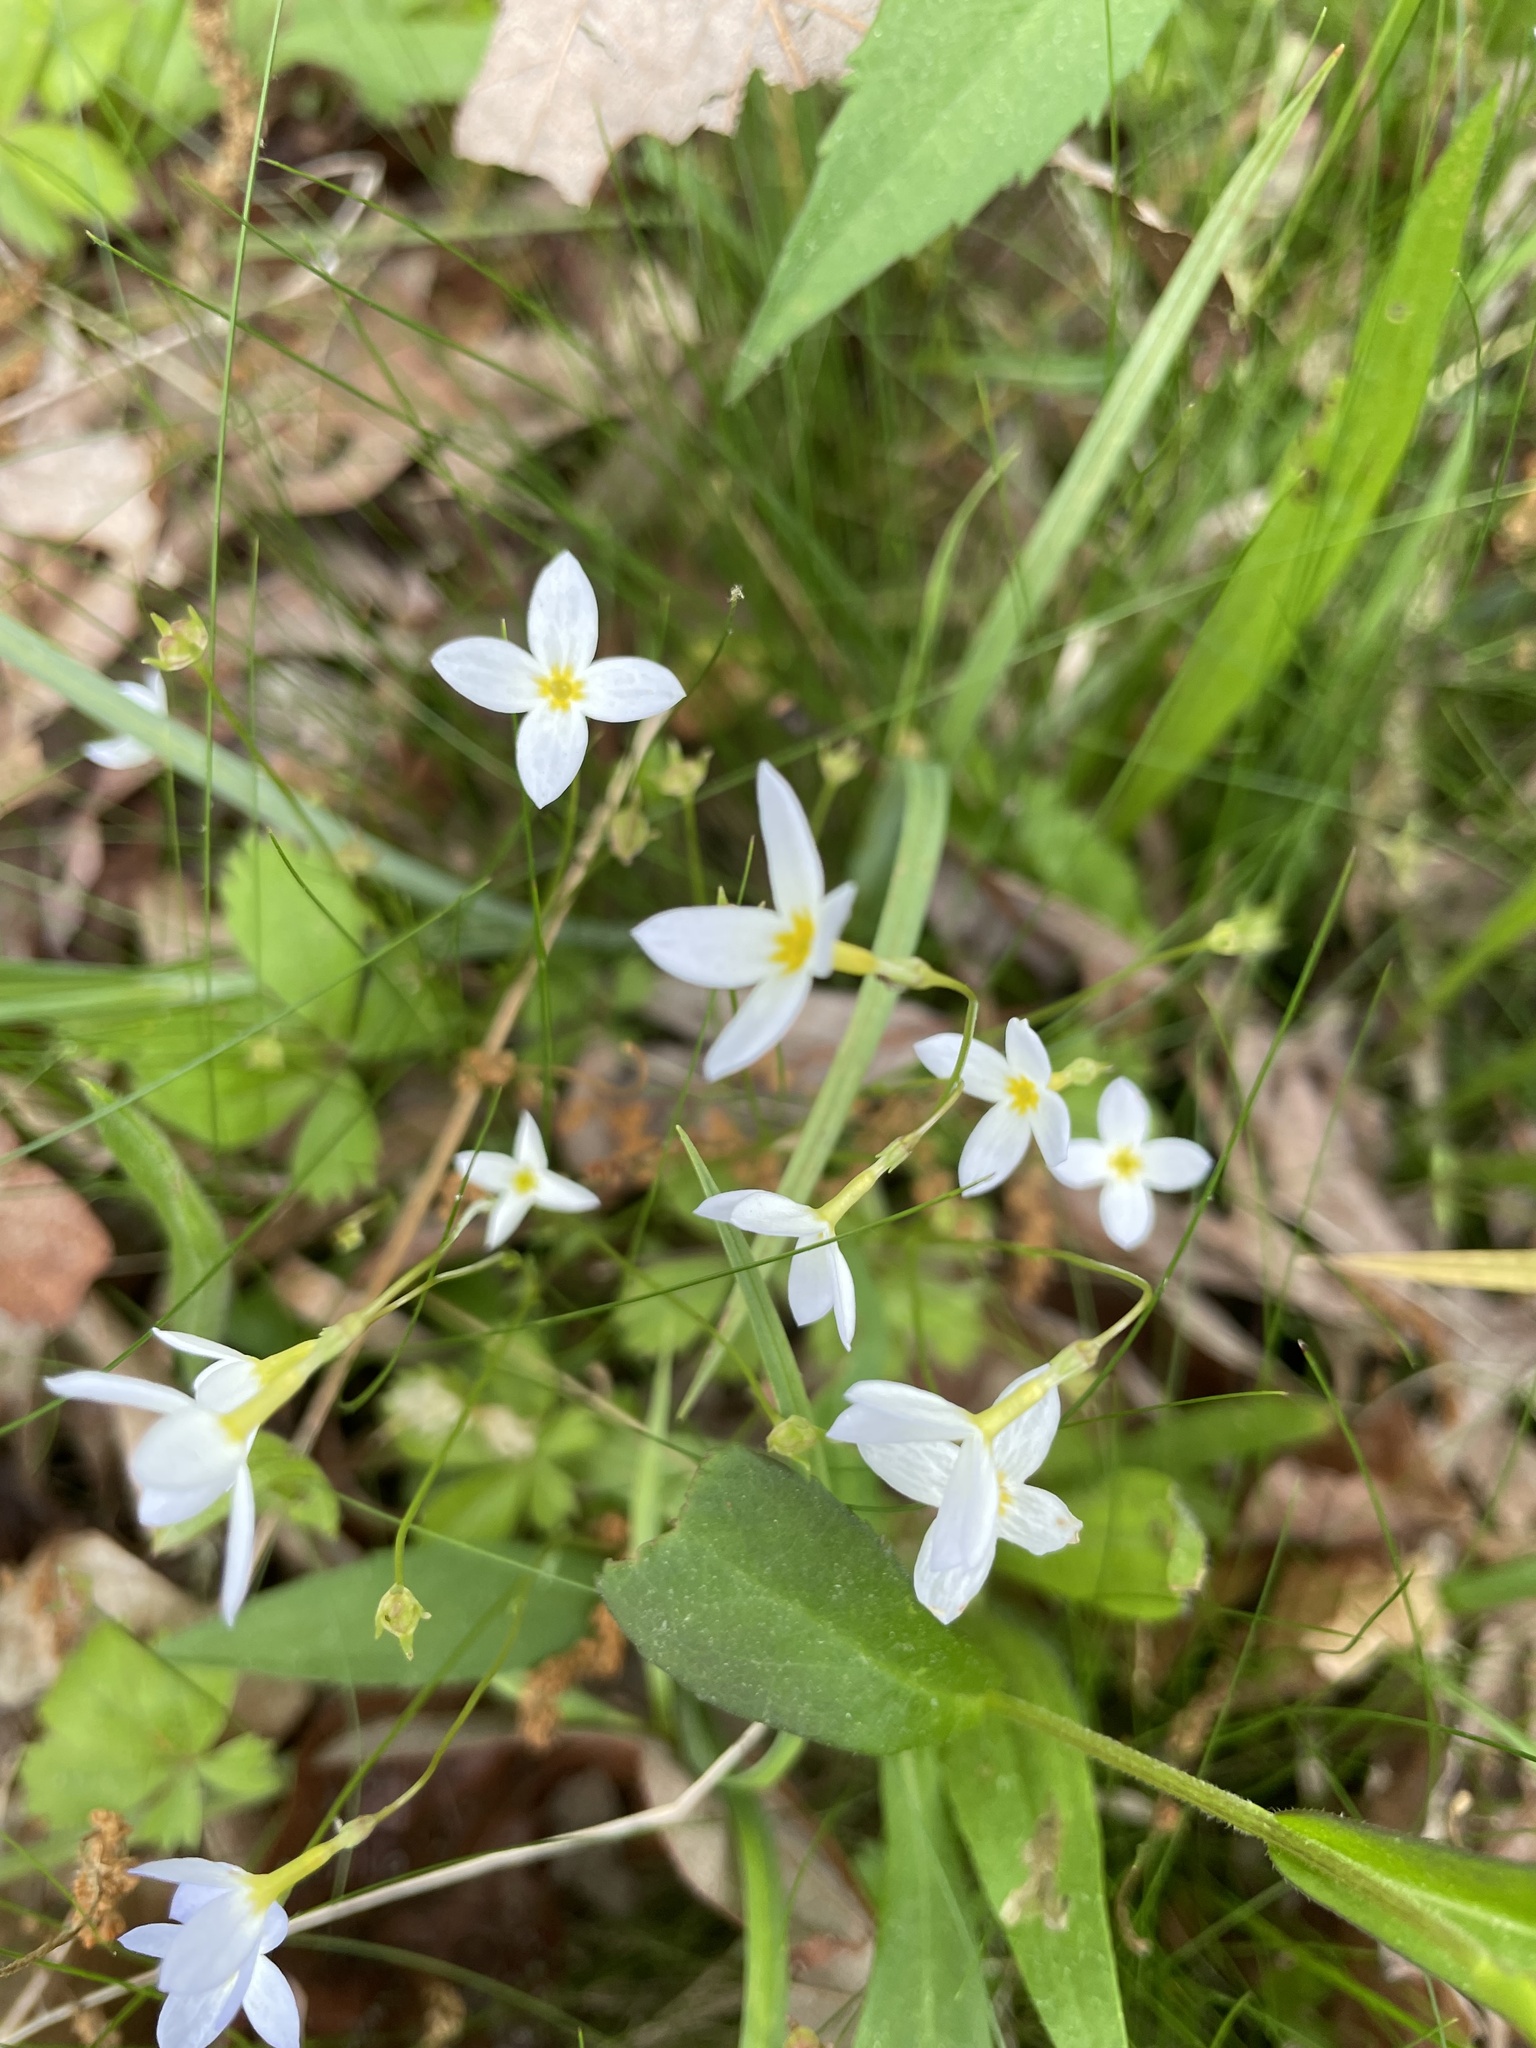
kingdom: Plantae
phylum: Tracheophyta
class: Magnoliopsida
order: Gentianales
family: Rubiaceae
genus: Houstonia
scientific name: Houstonia caerulea
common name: Bluets
